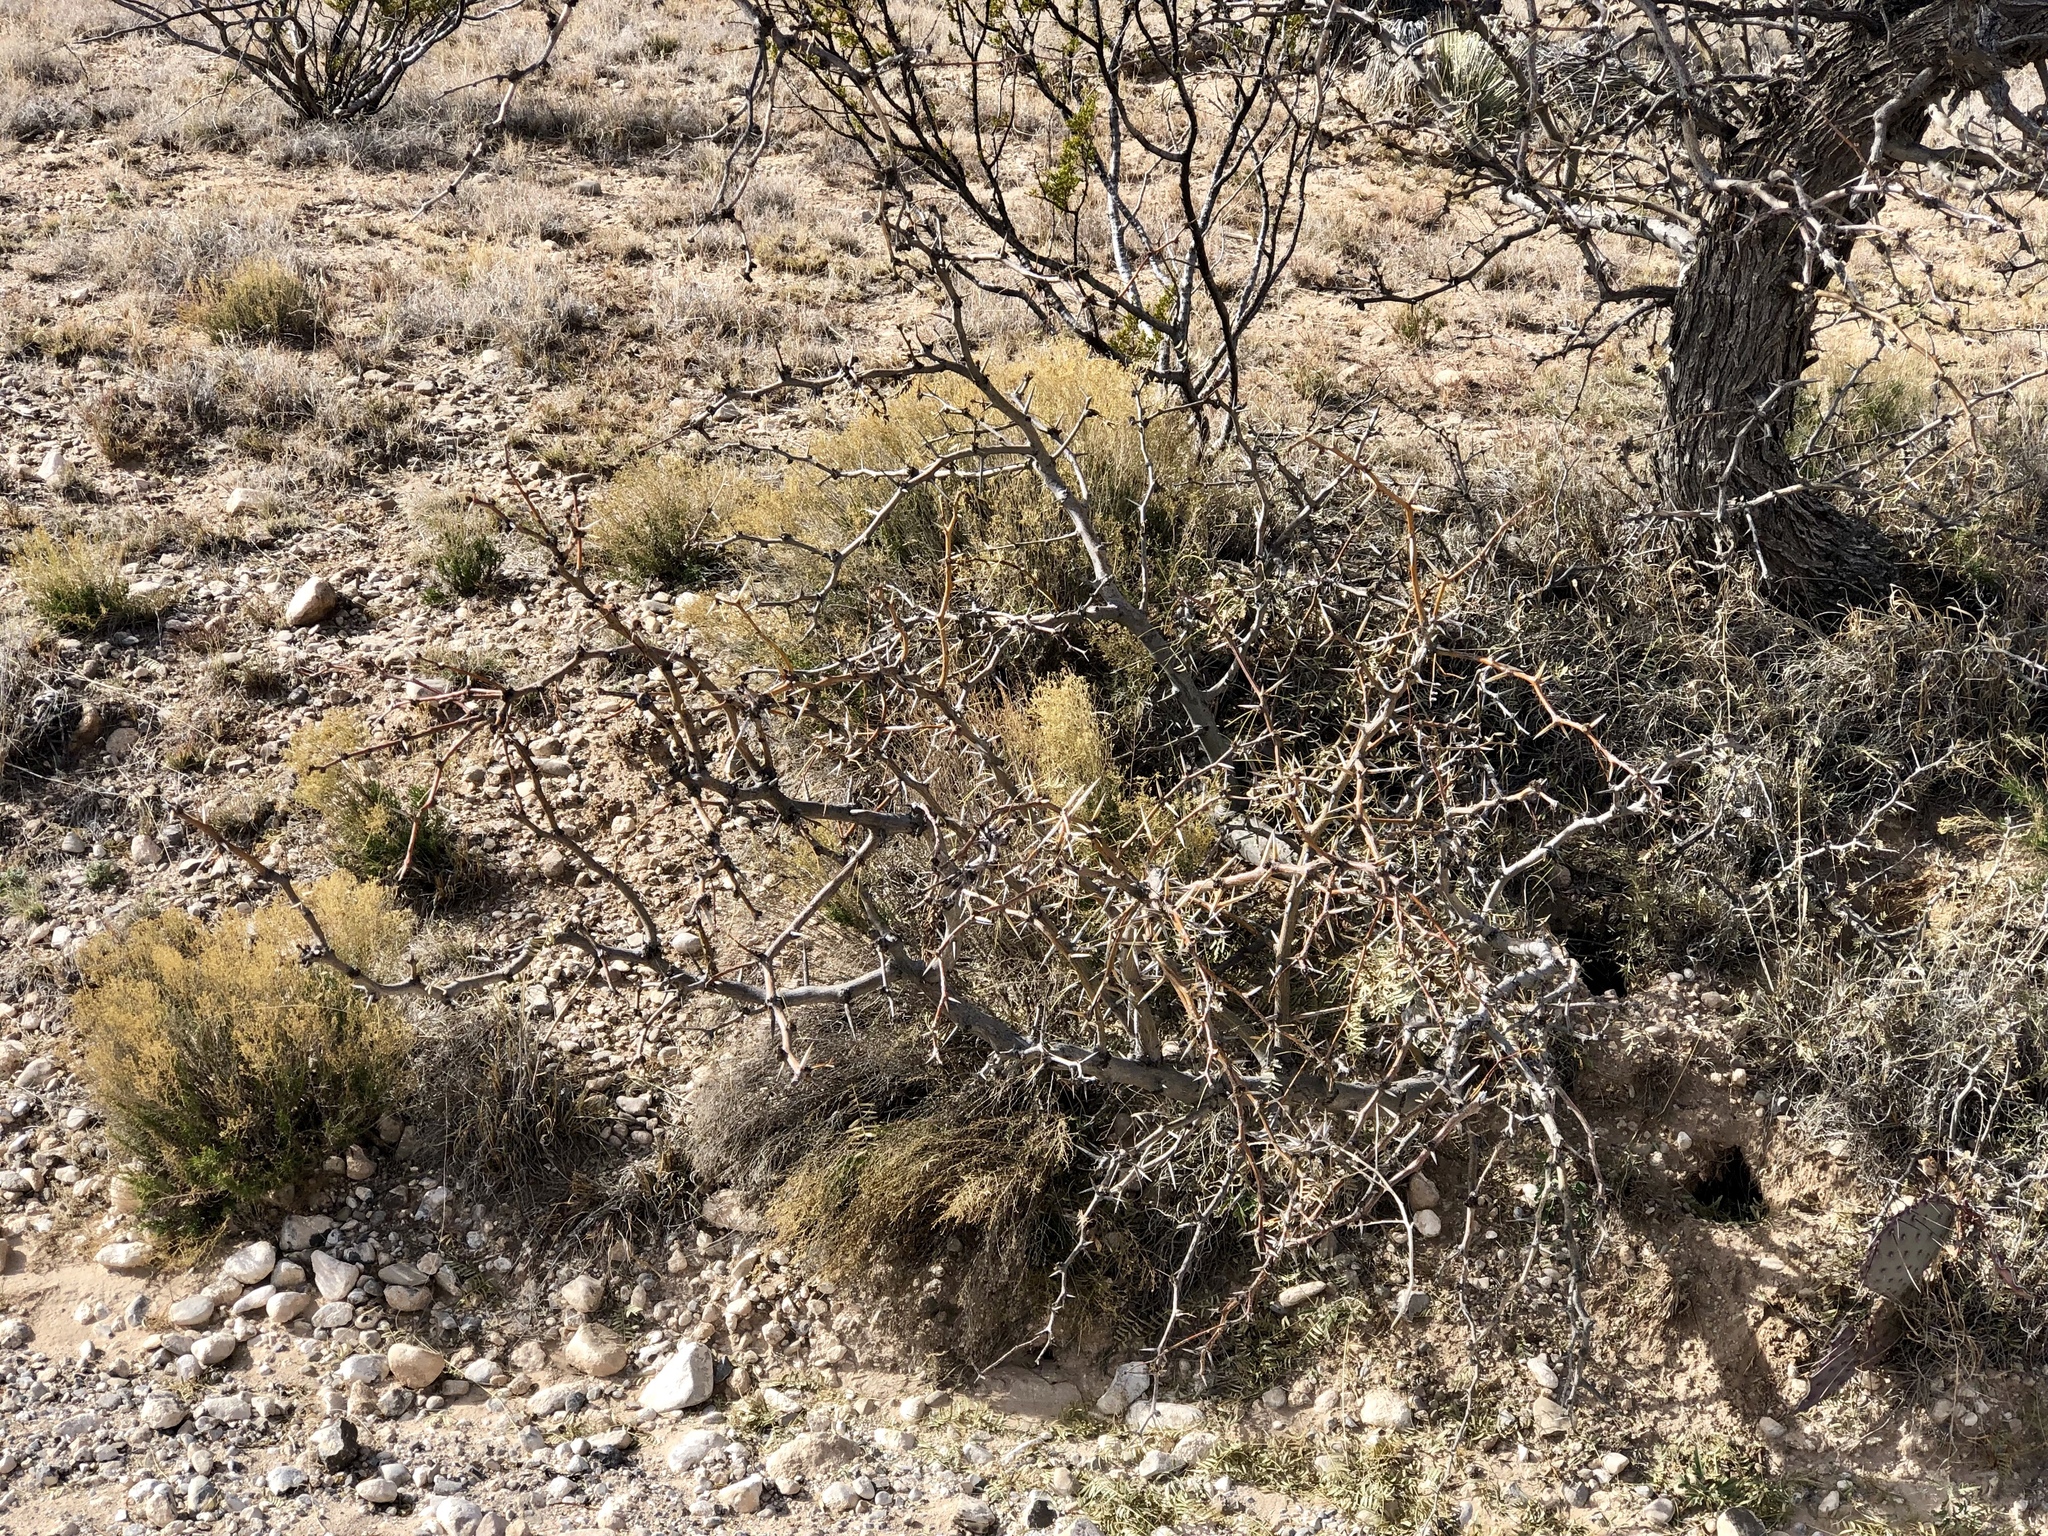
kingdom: Plantae
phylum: Tracheophyta
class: Magnoliopsida
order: Fabales
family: Fabaceae
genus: Prosopis
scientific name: Prosopis glandulosa
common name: Honey mesquite
